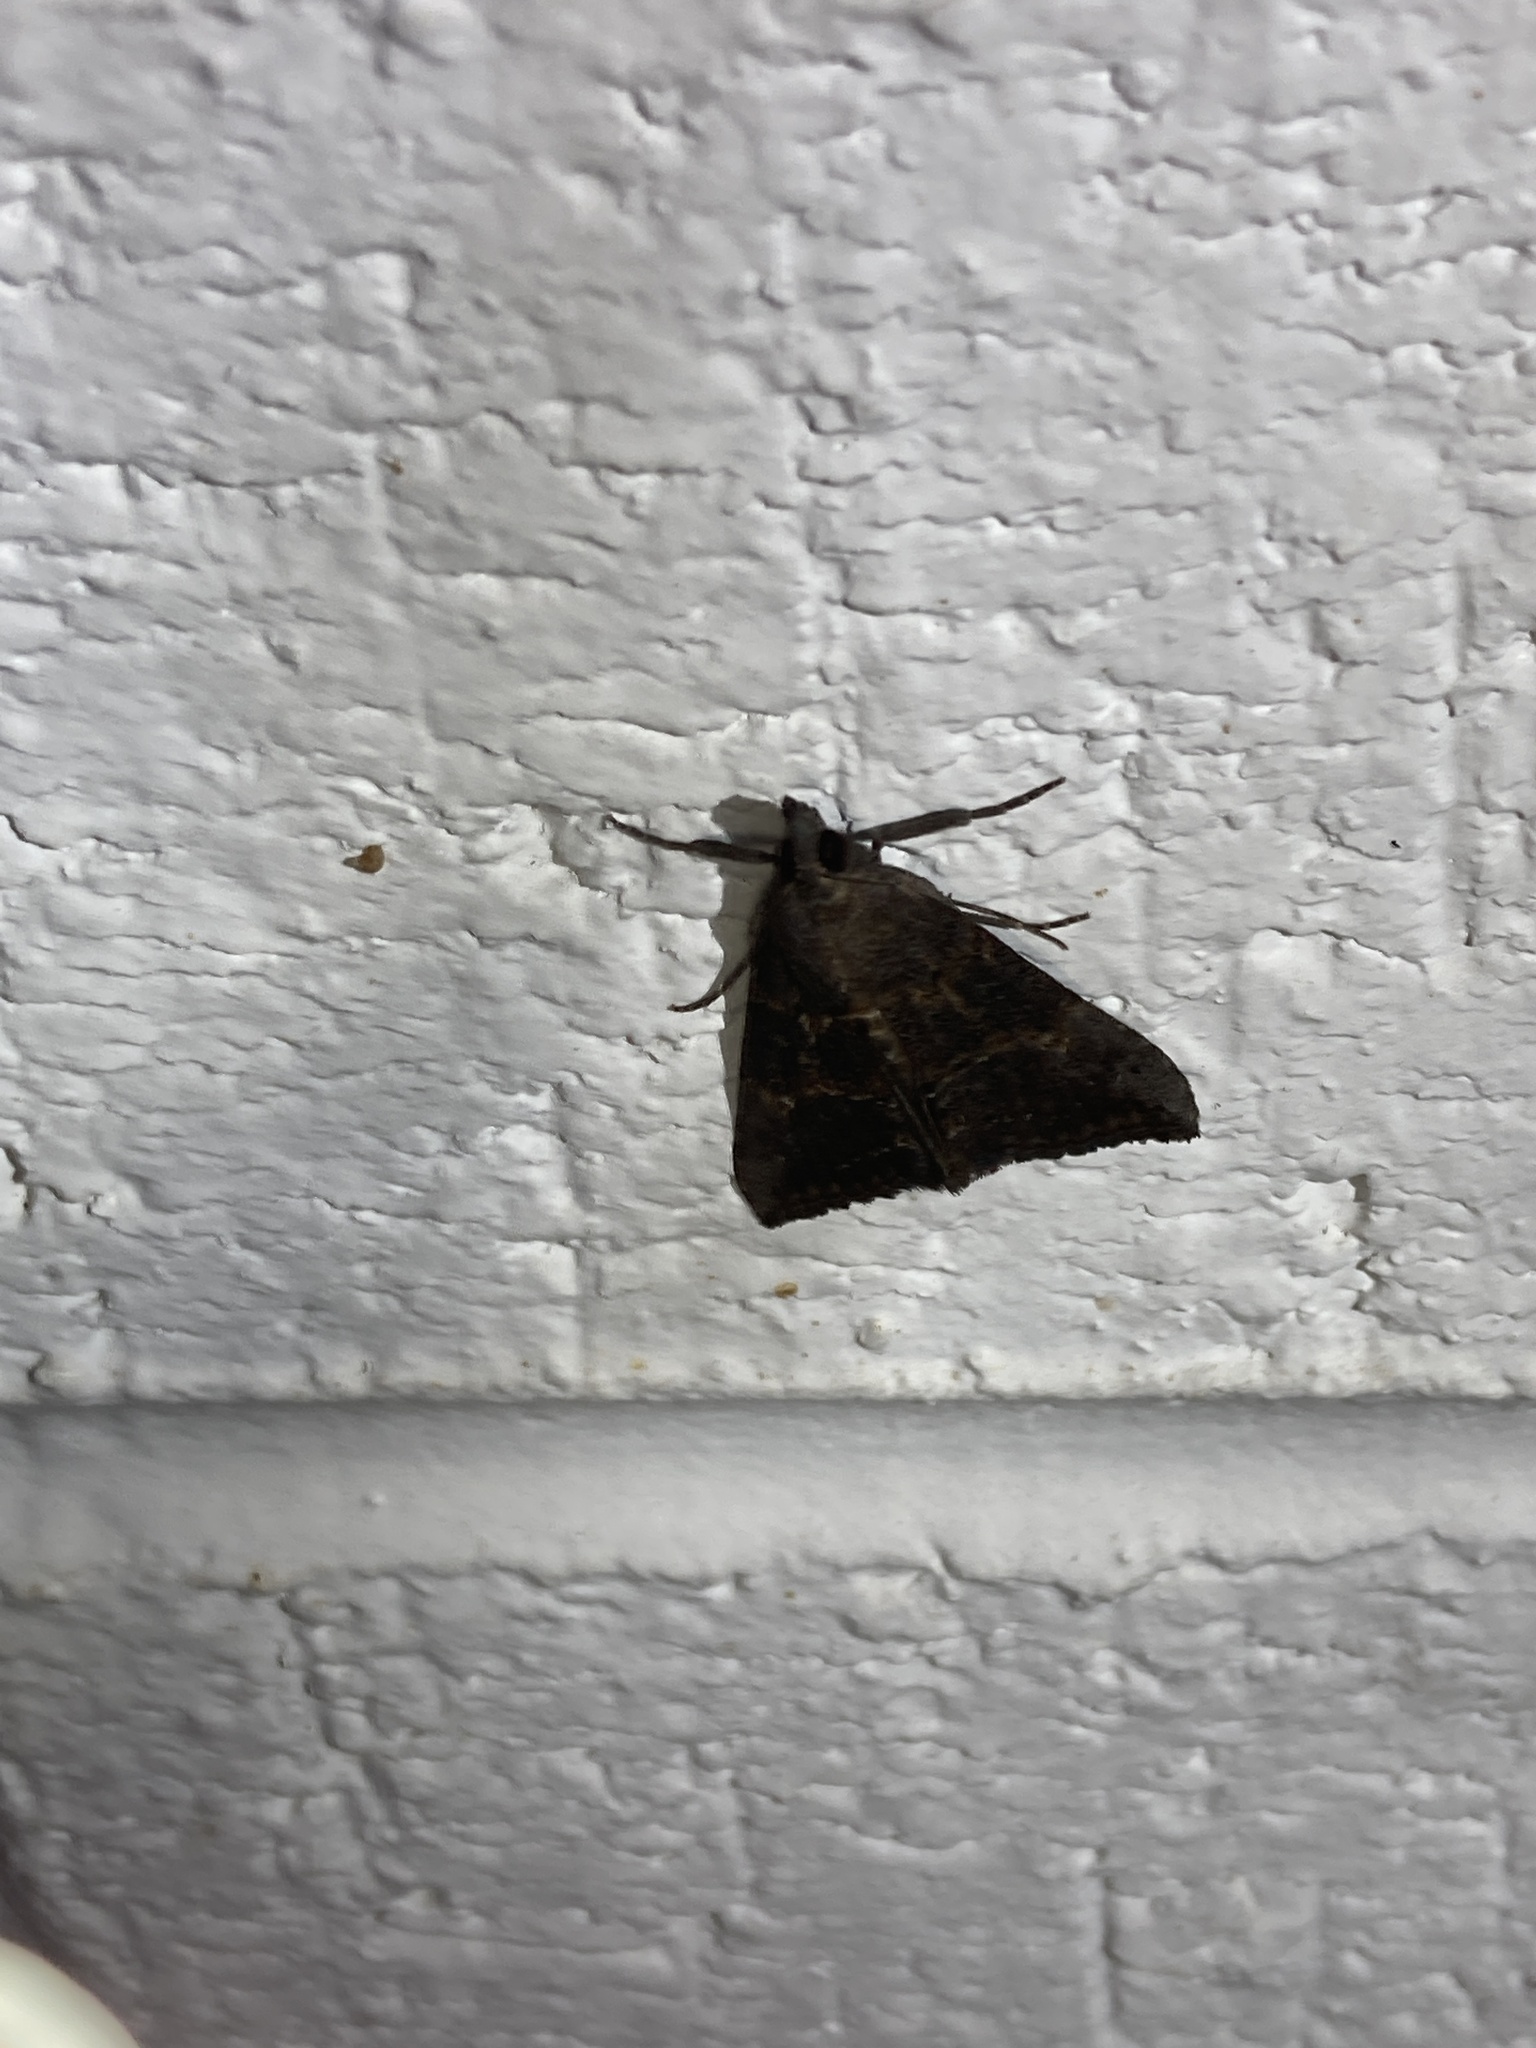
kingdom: Animalia
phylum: Arthropoda
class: Insecta
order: Lepidoptera
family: Erebidae
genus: Hypena
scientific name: Hypena scabra
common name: Green cloverworm
